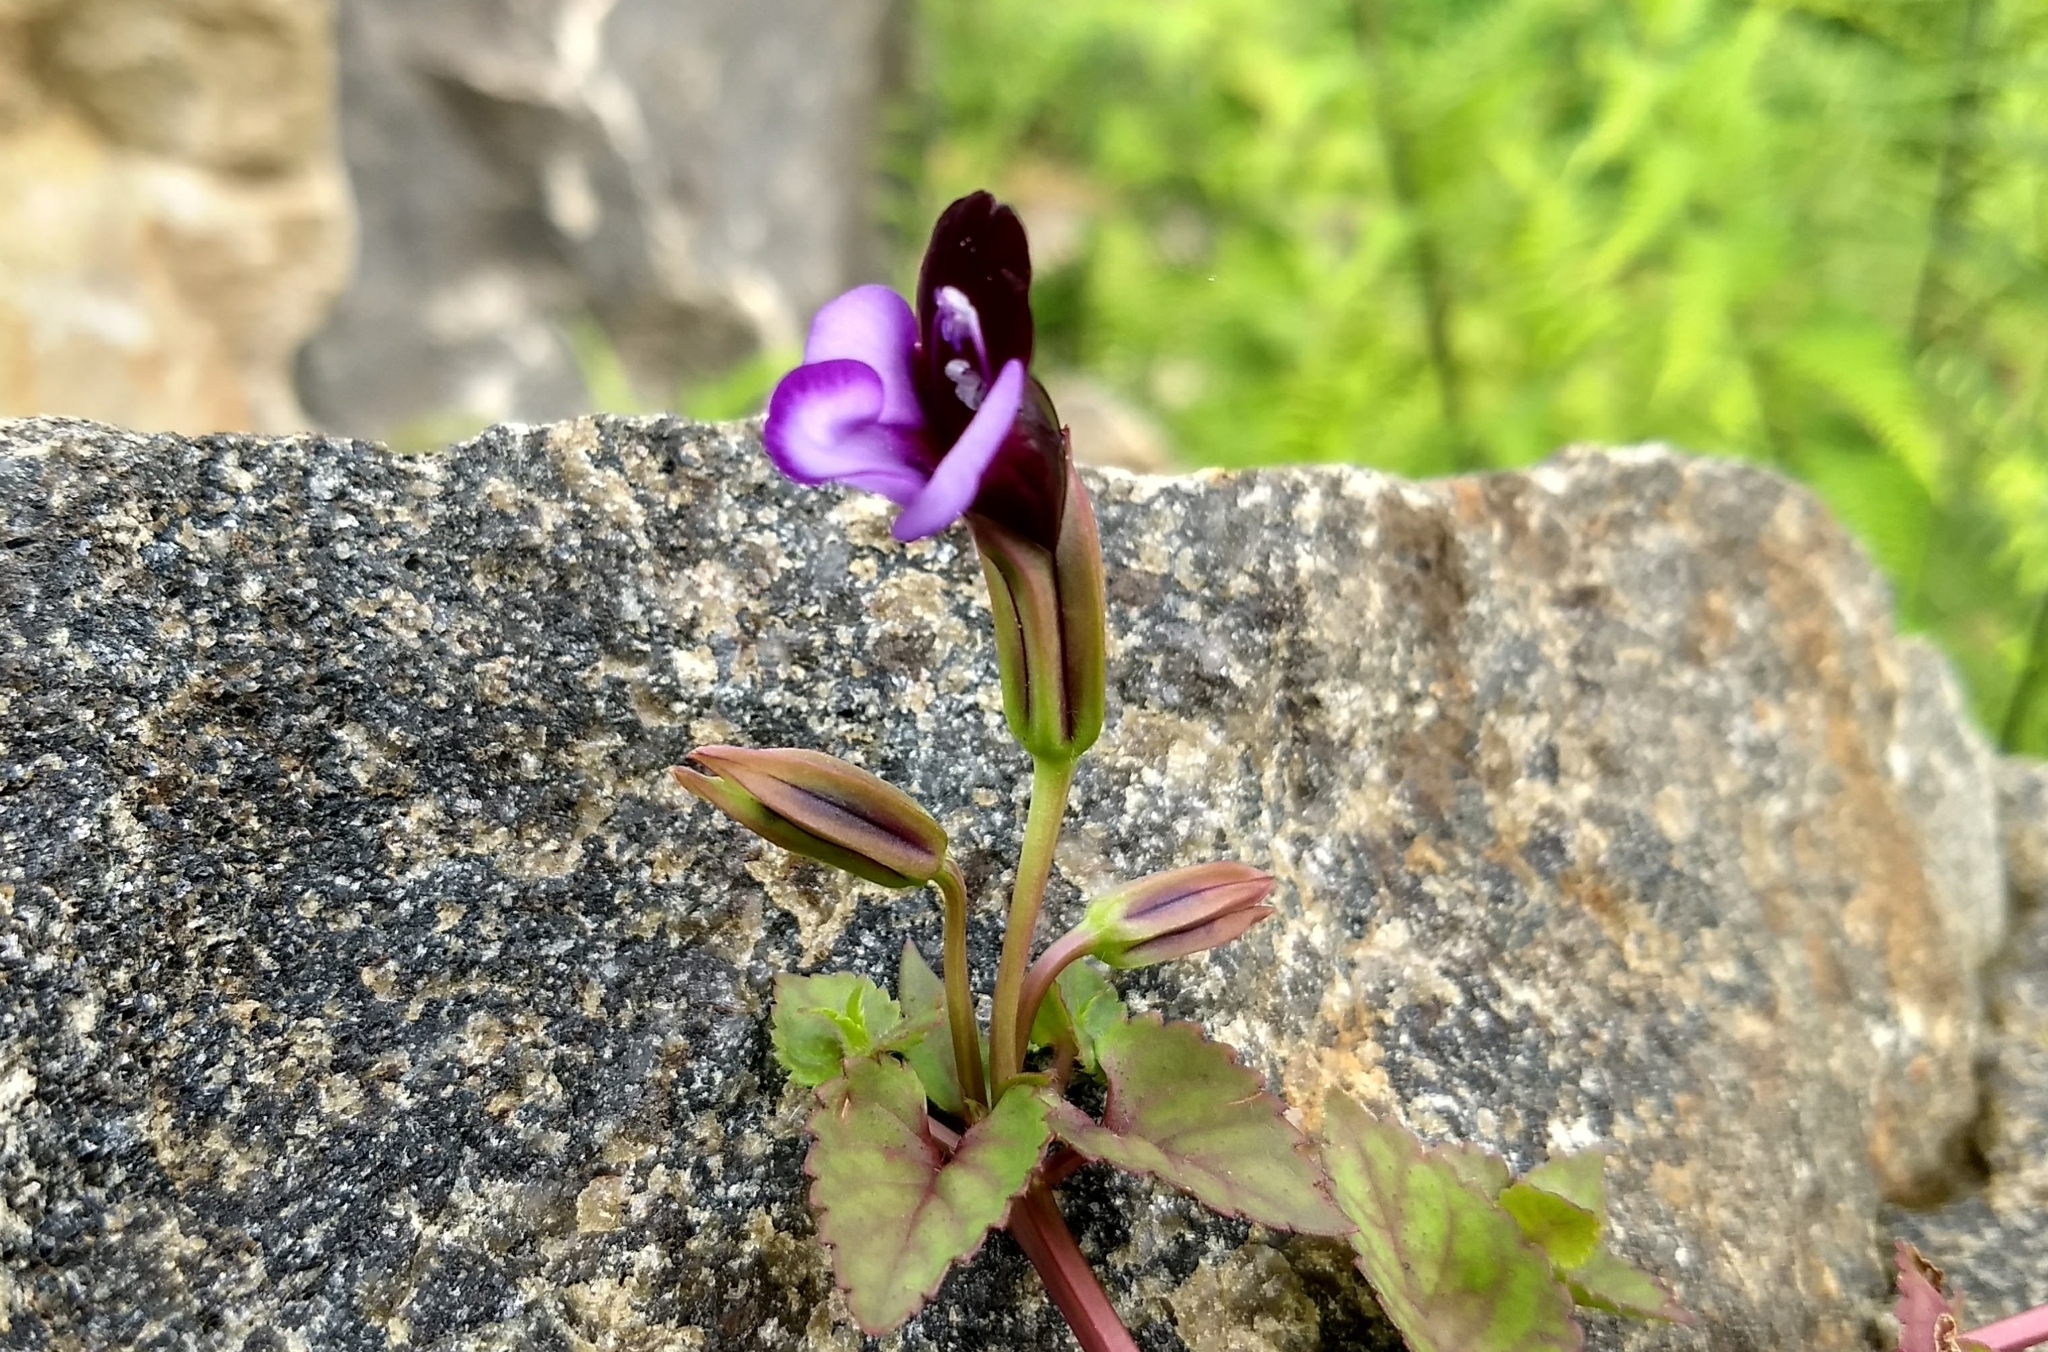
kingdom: Plantae
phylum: Tracheophyta
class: Magnoliopsida
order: Lamiales
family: Linderniaceae
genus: Torenia
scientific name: Torenia fournieri
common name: Bluewings
